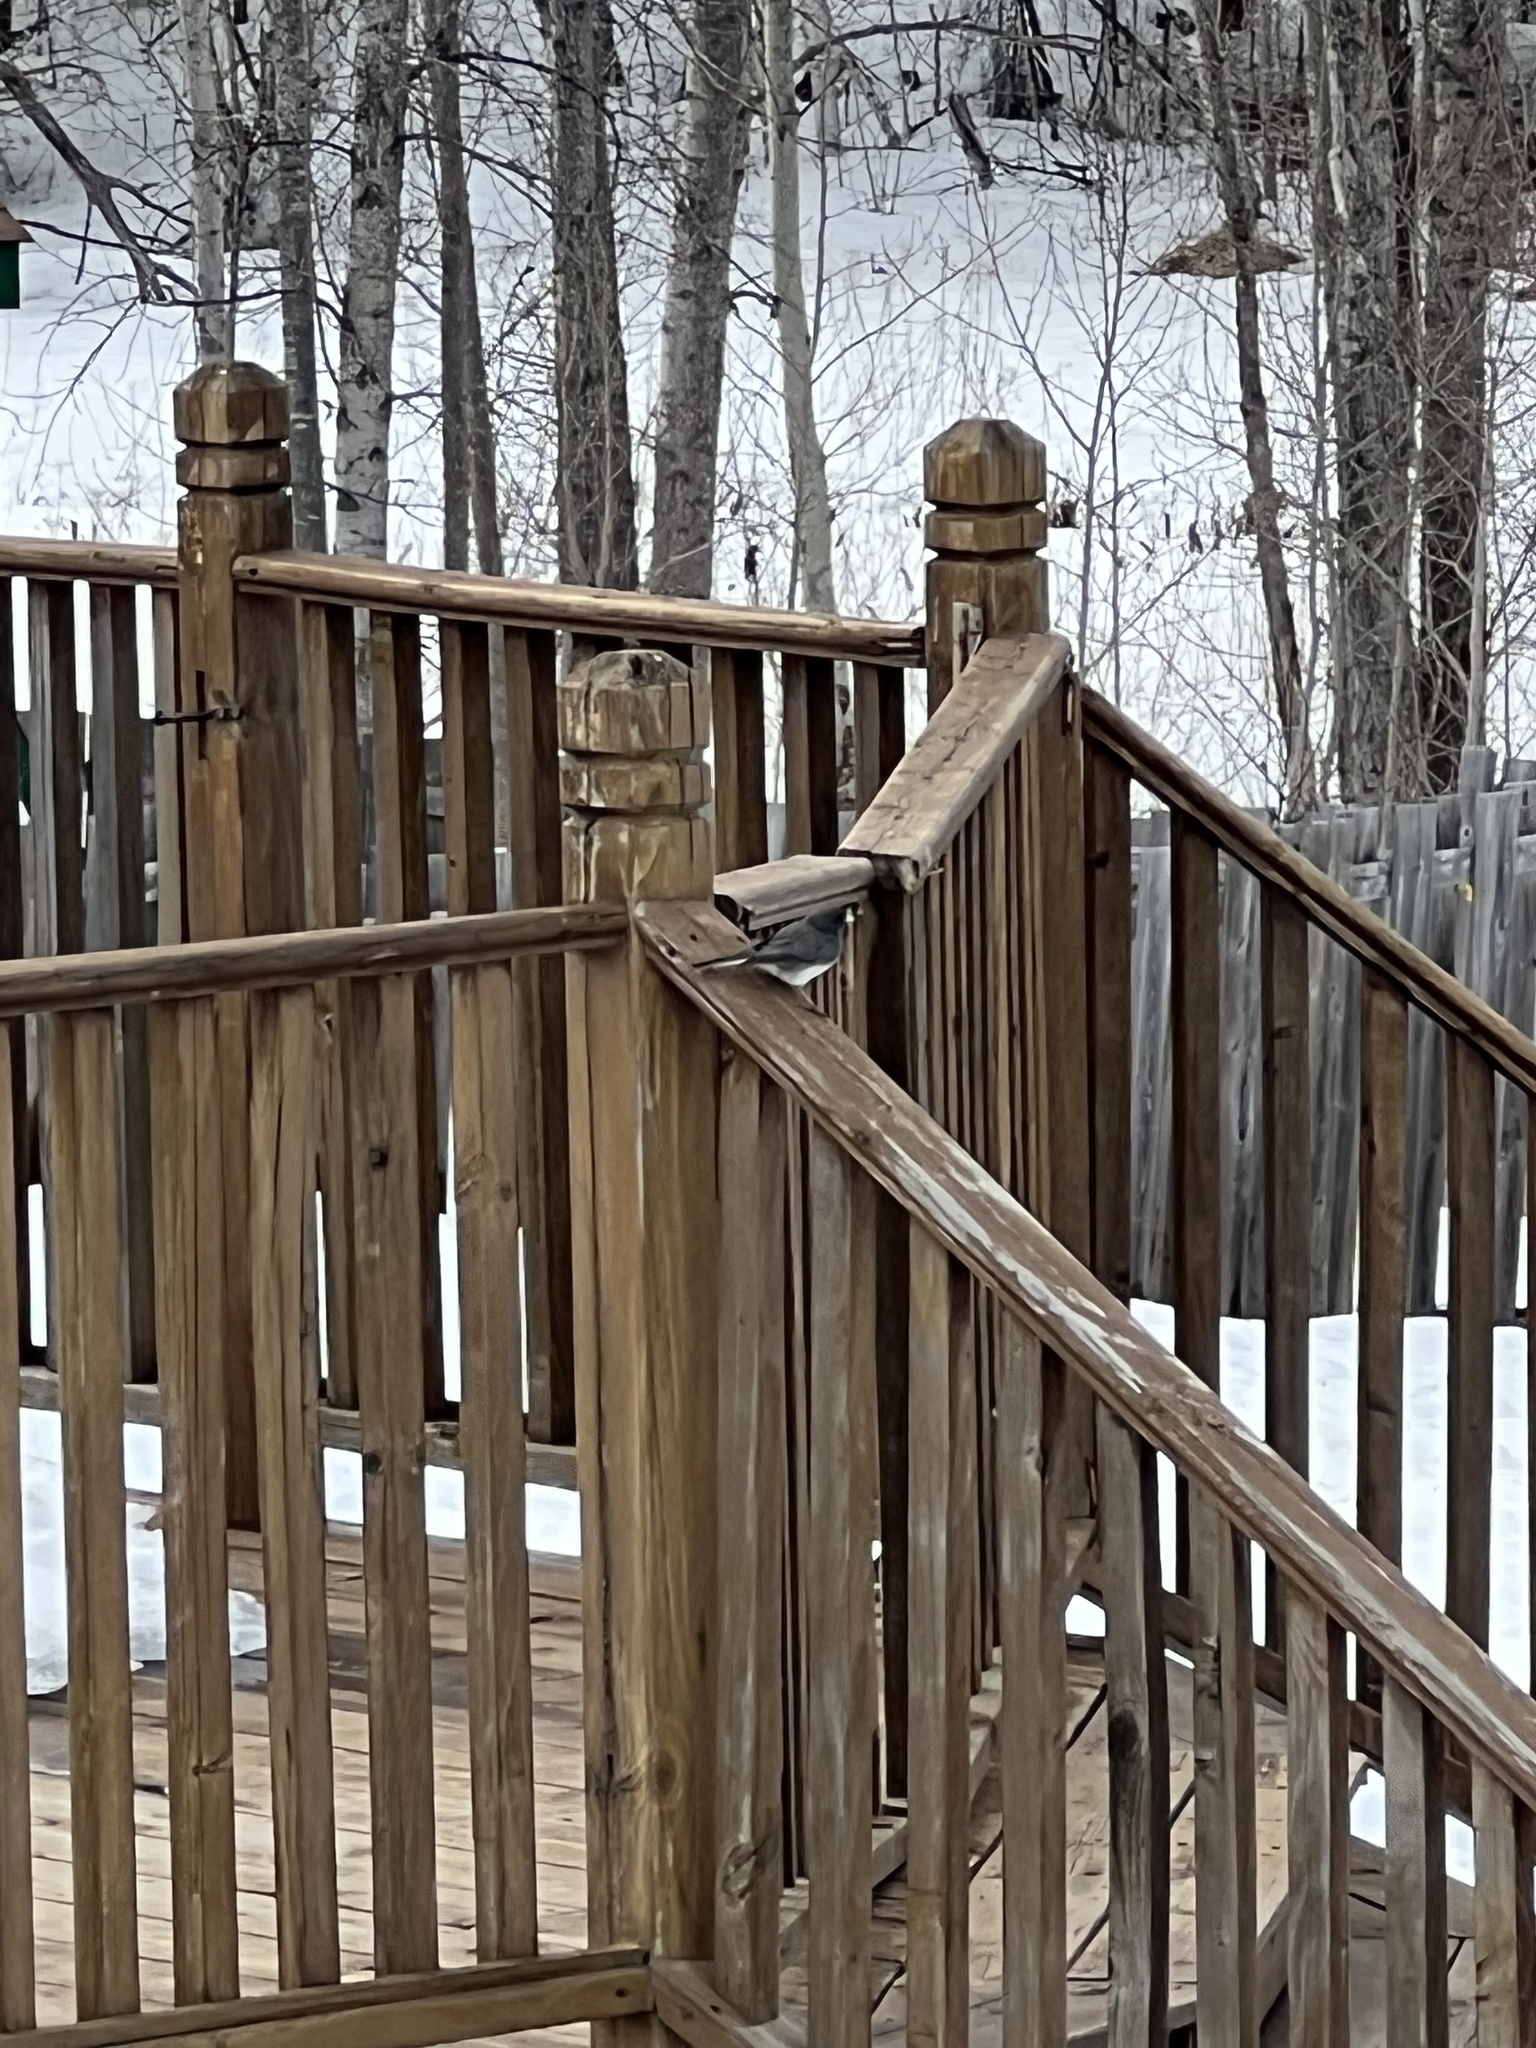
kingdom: Animalia
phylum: Chordata
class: Aves
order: Passeriformes
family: Passerellidae
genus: Junco
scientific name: Junco hyemalis
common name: Dark-eyed junco
